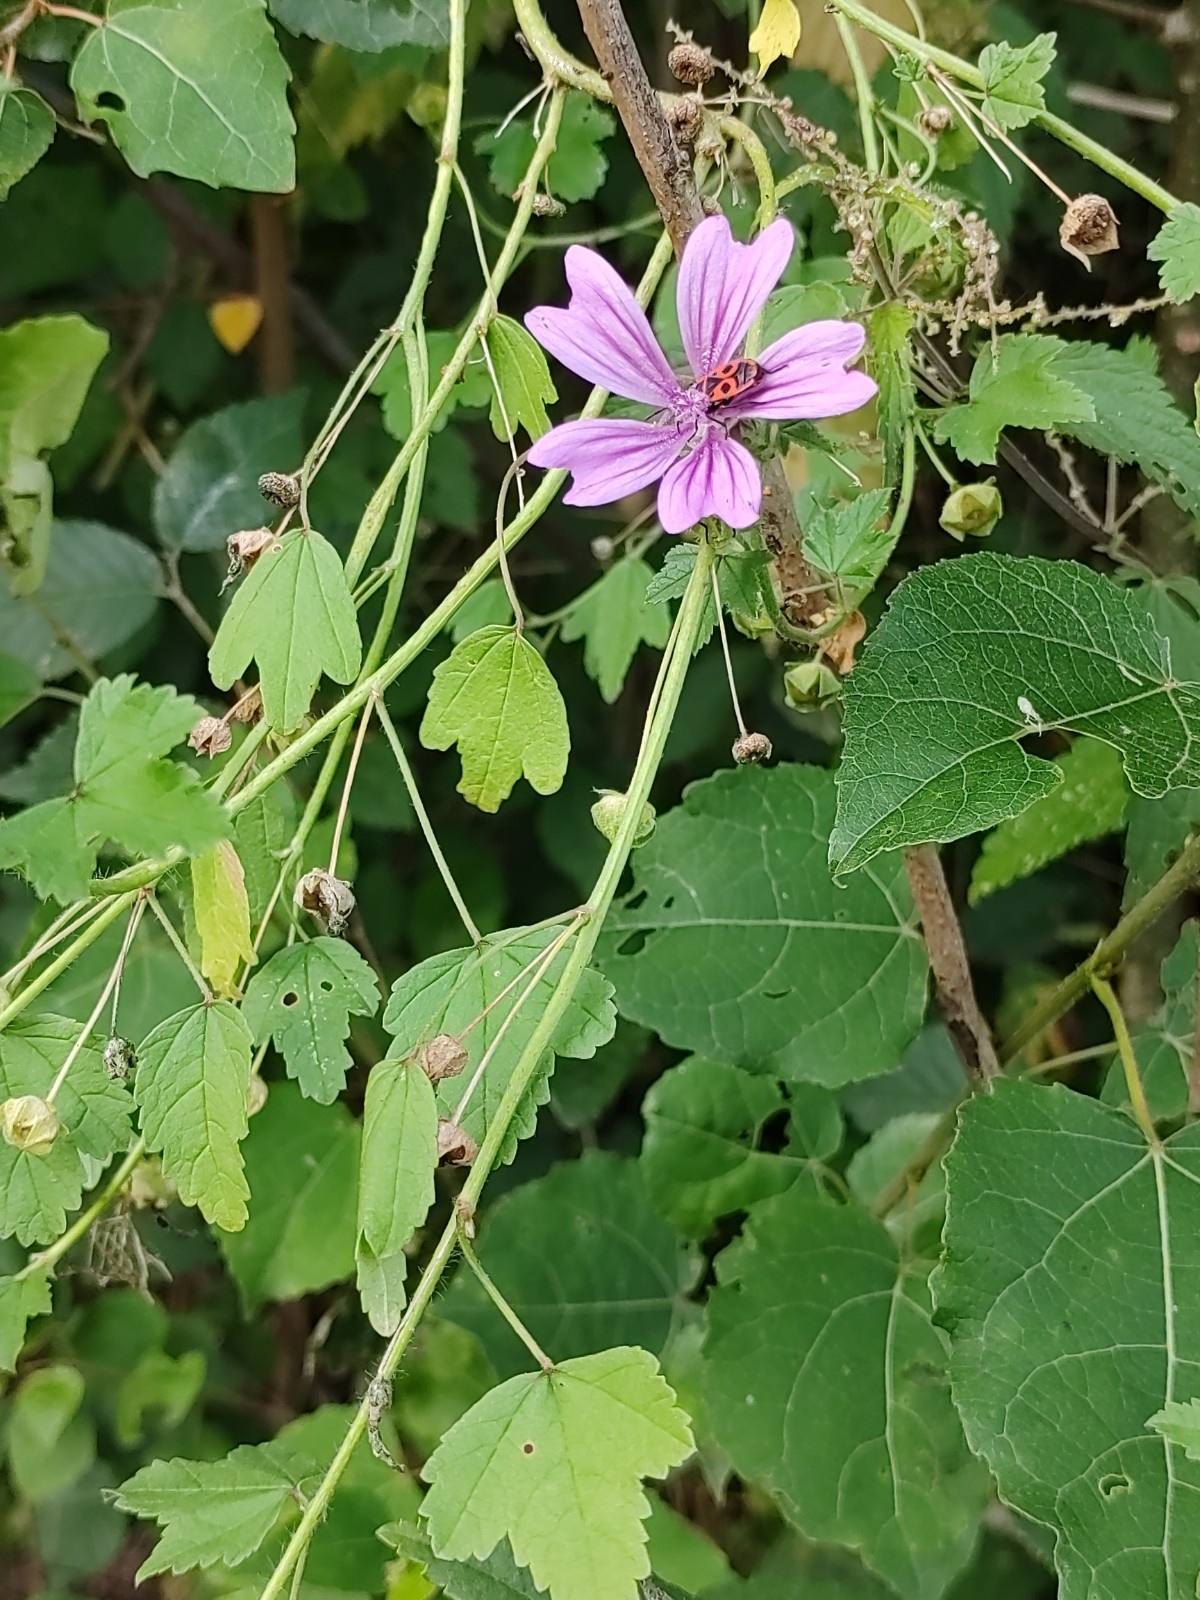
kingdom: Plantae
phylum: Tracheophyta
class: Magnoliopsida
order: Malvales
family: Malvaceae
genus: Malva
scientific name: Malva sylvestris
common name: Common mallow
